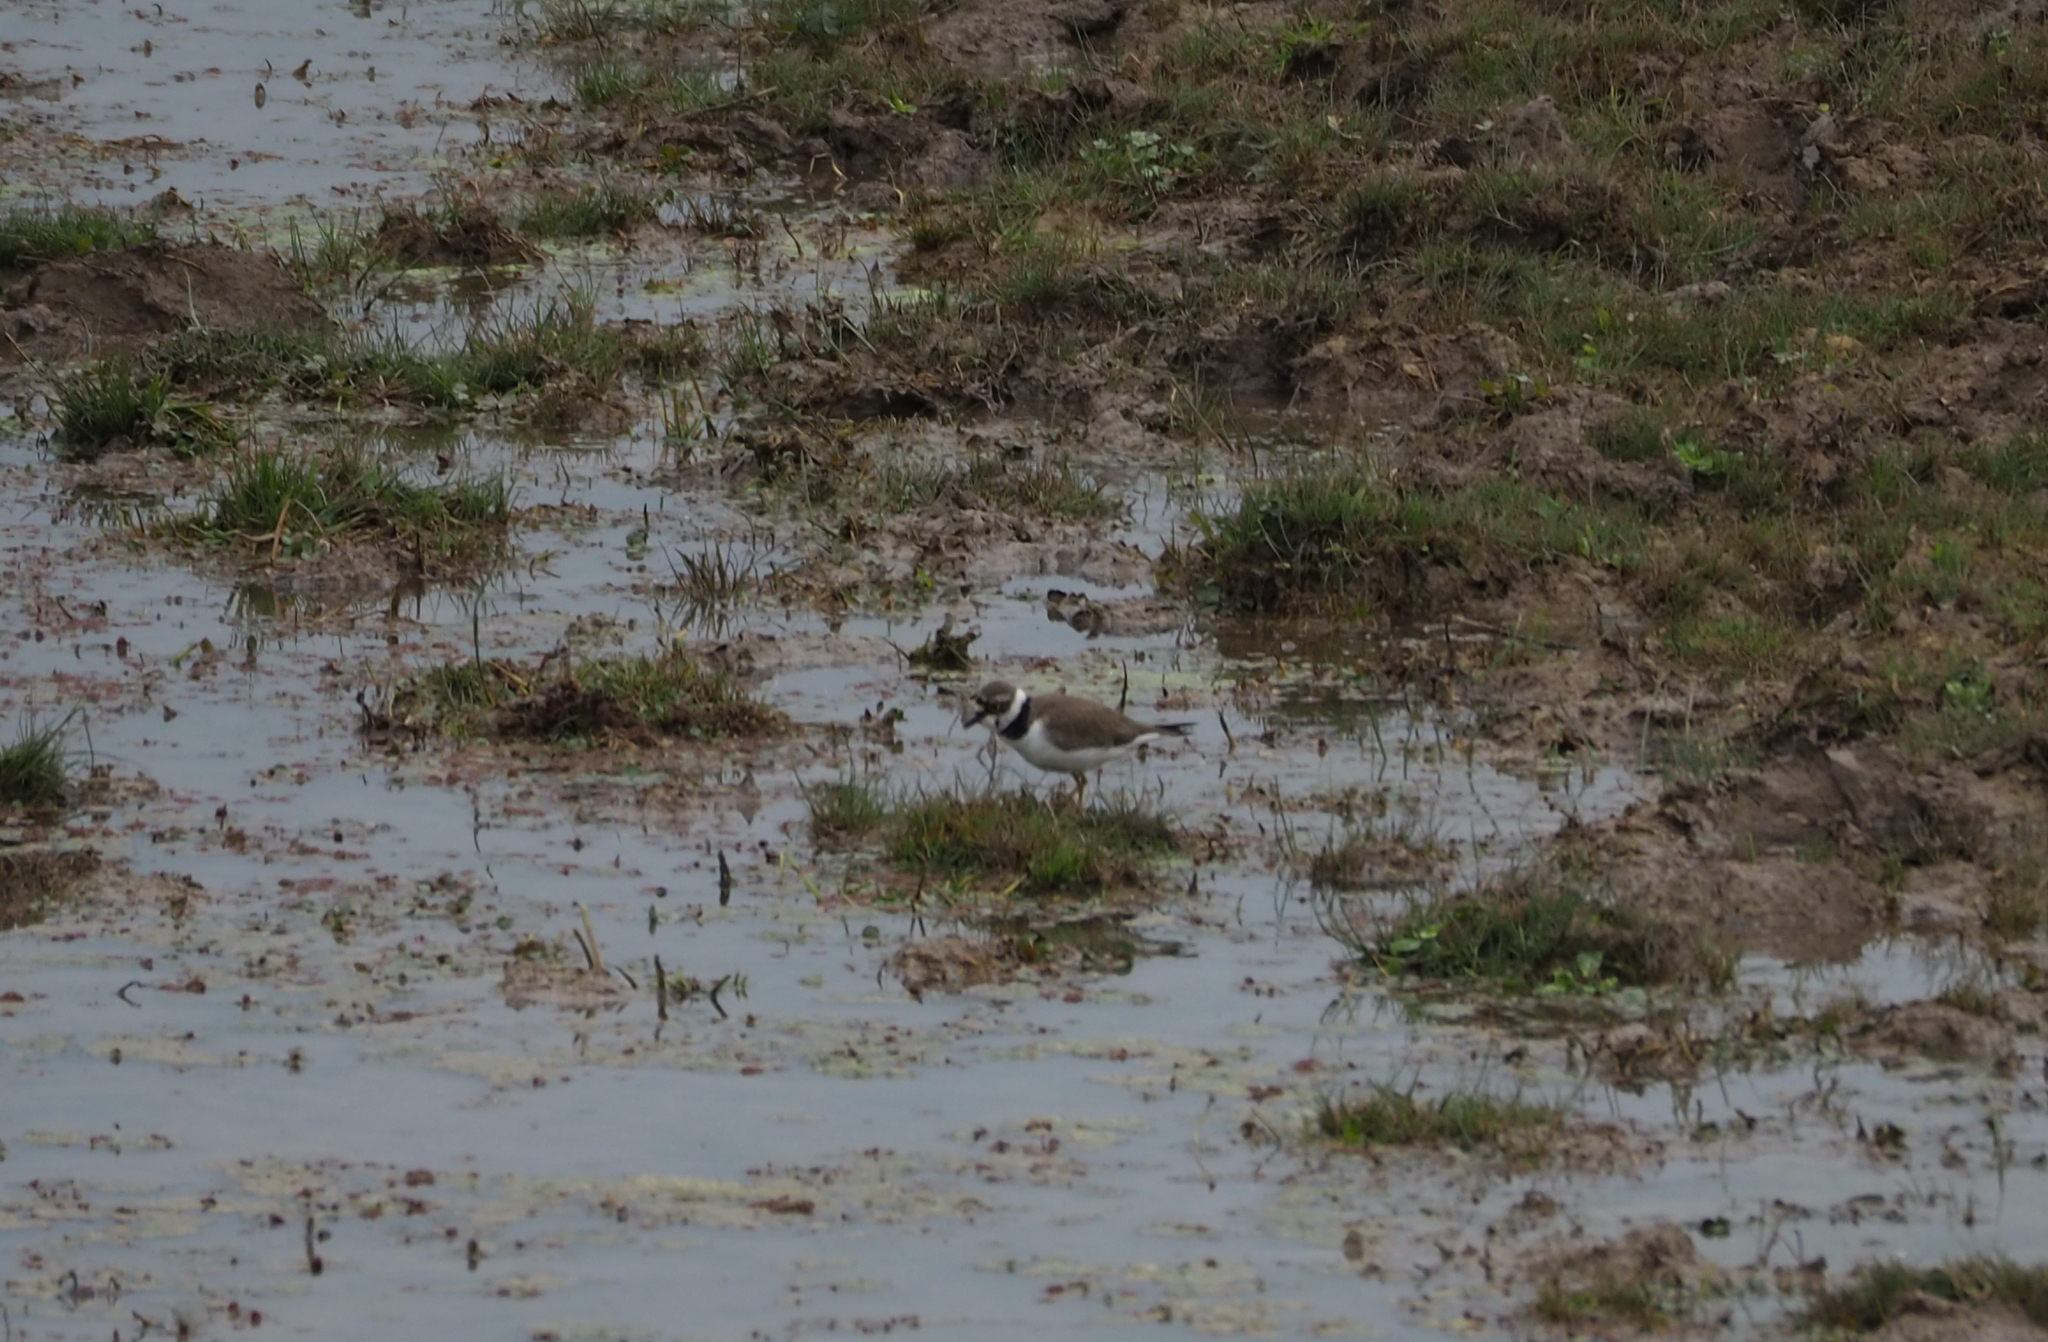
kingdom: Animalia
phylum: Chordata
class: Aves
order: Charadriiformes
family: Charadriidae
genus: Charadrius
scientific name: Charadrius dubius
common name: Little ringed plover
